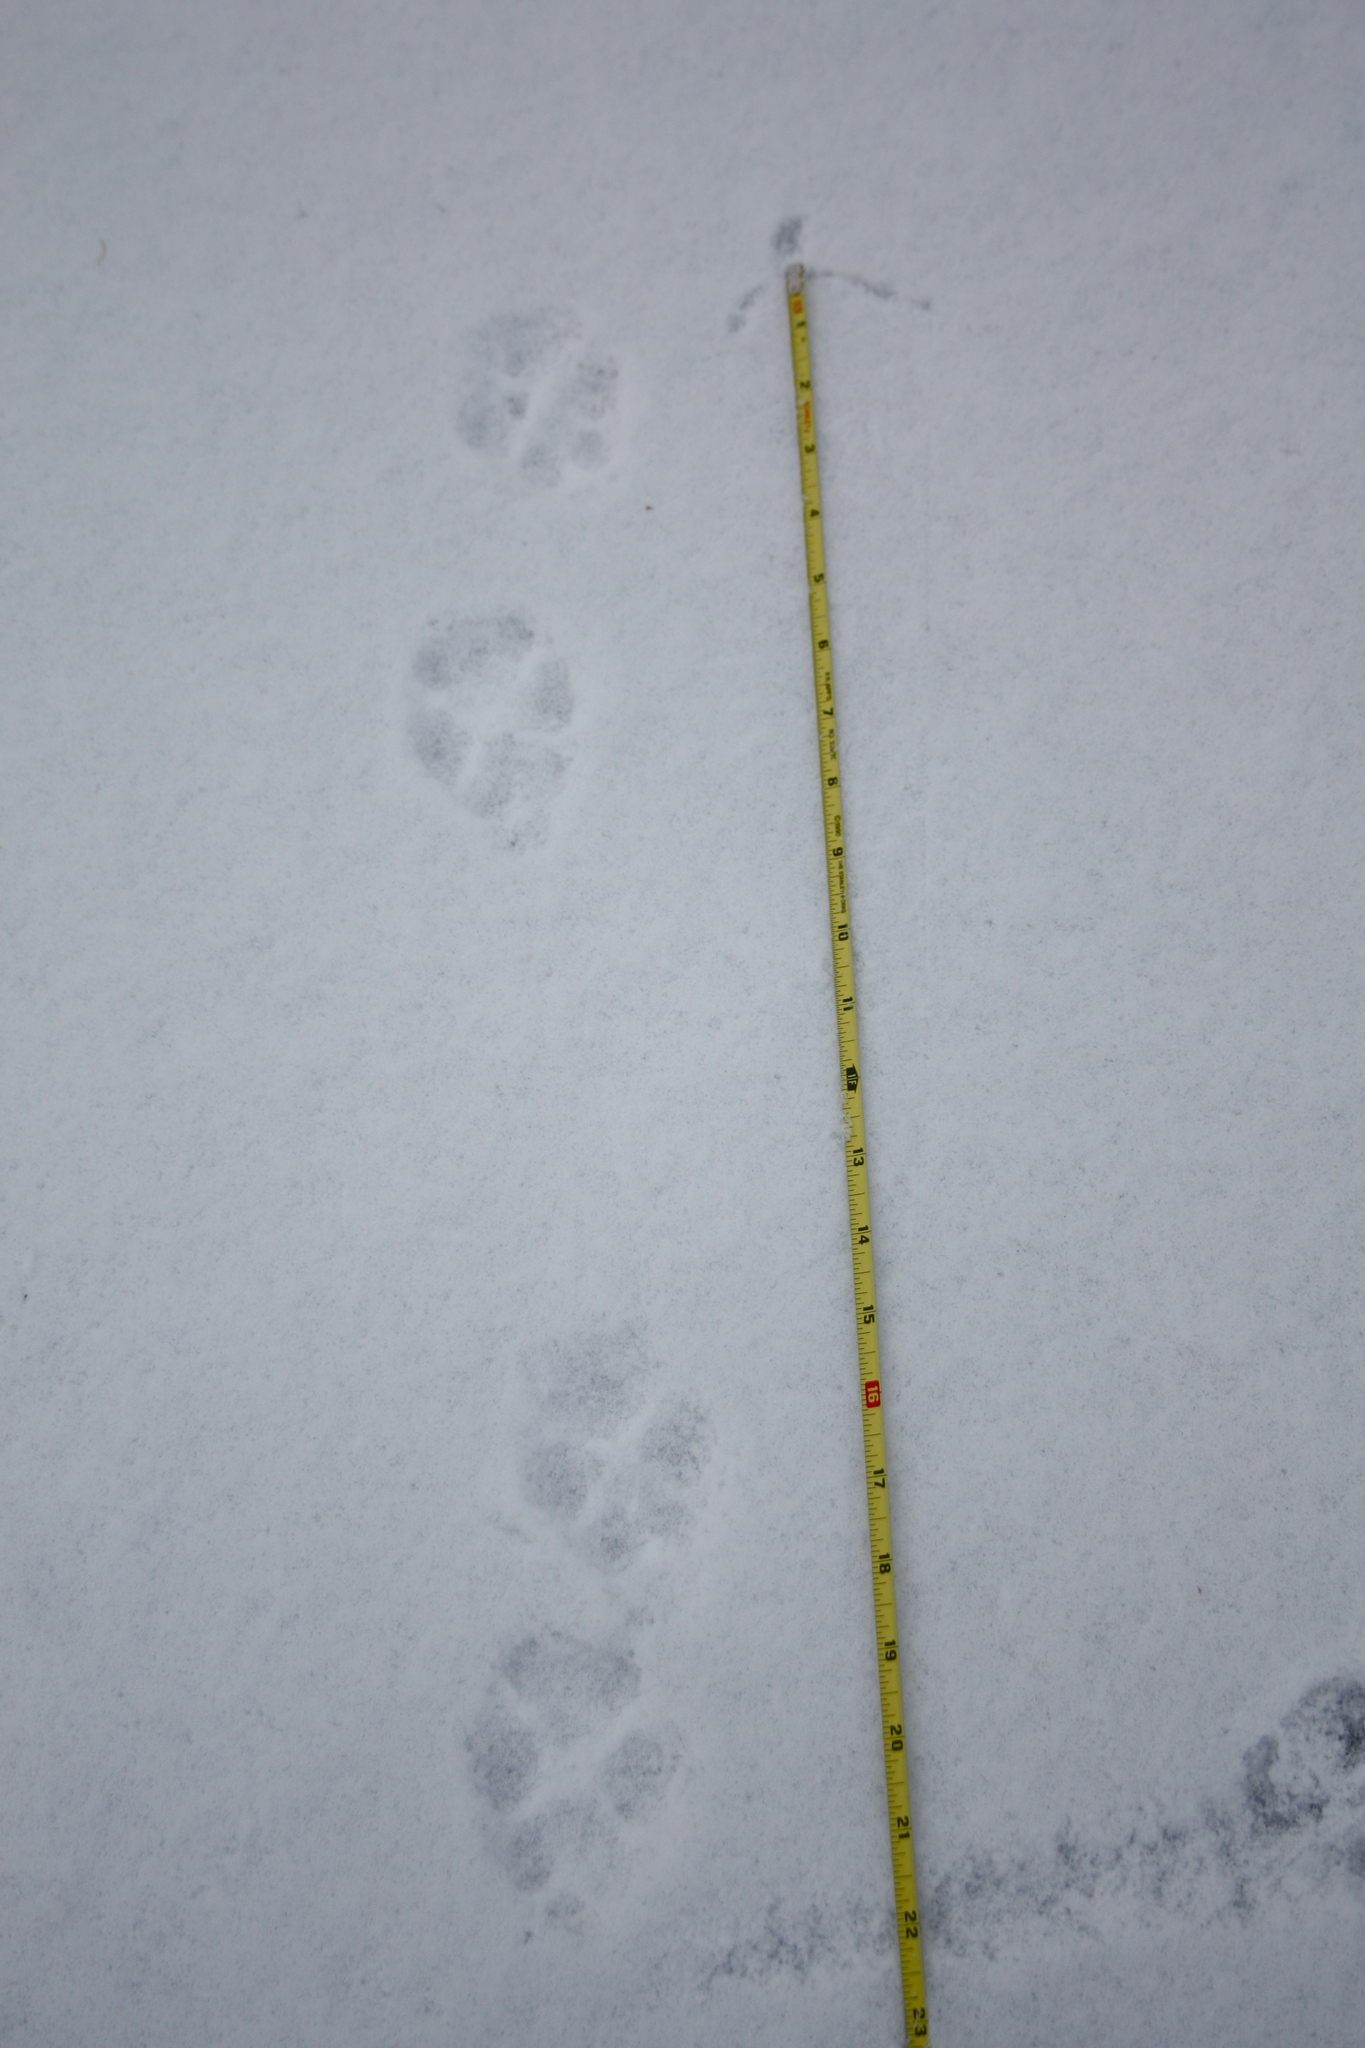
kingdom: Animalia
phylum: Chordata
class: Mammalia
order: Carnivora
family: Canidae
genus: Canis
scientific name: Canis latrans
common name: Coyote
